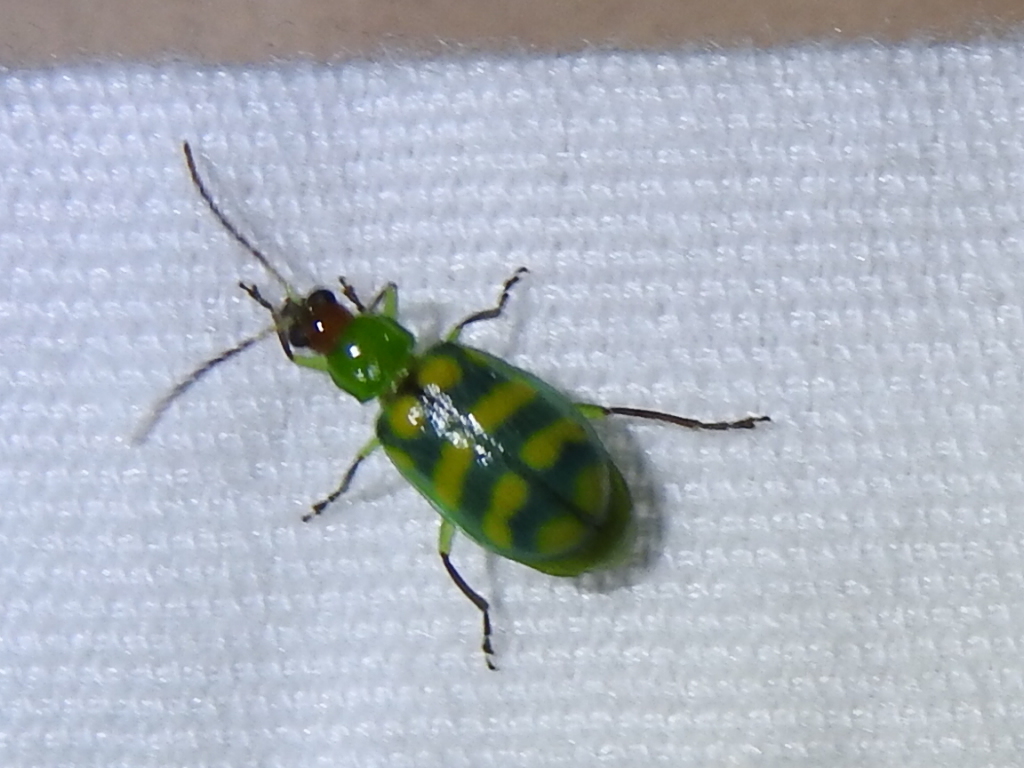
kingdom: Animalia
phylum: Arthropoda
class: Insecta
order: Coleoptera
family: Chrysomelidae
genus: Diabrotica
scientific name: Diabrotica balteata
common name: Leaf beetle
